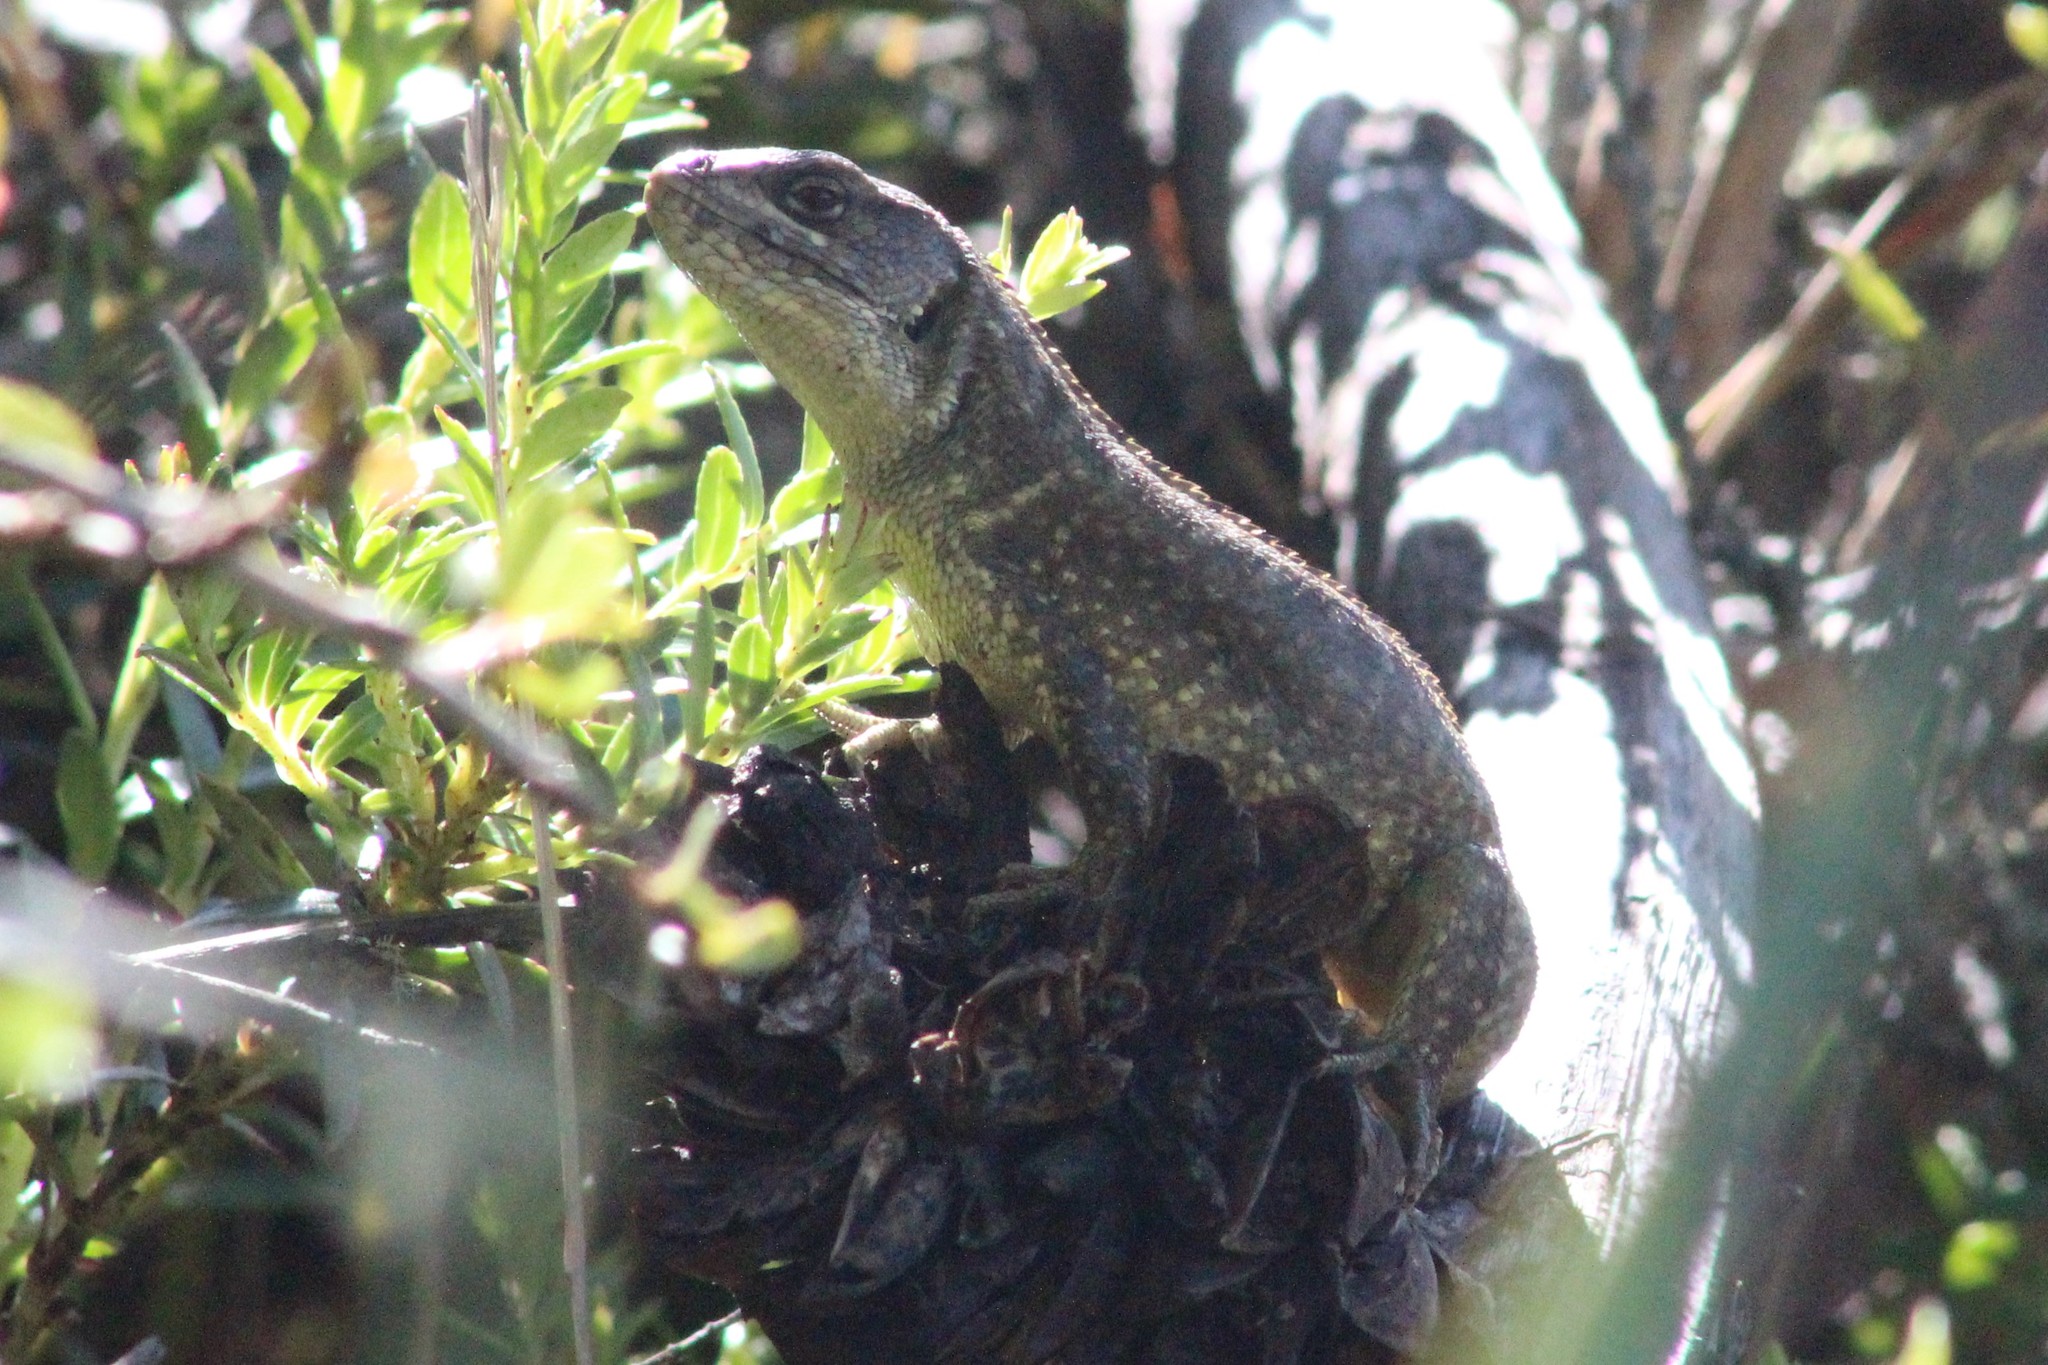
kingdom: Animalia
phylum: Chordata
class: Squamata
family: Tropiduridae
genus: Stenocercus
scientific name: Stenocercus guentheri
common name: Günther's whorltail iguana
